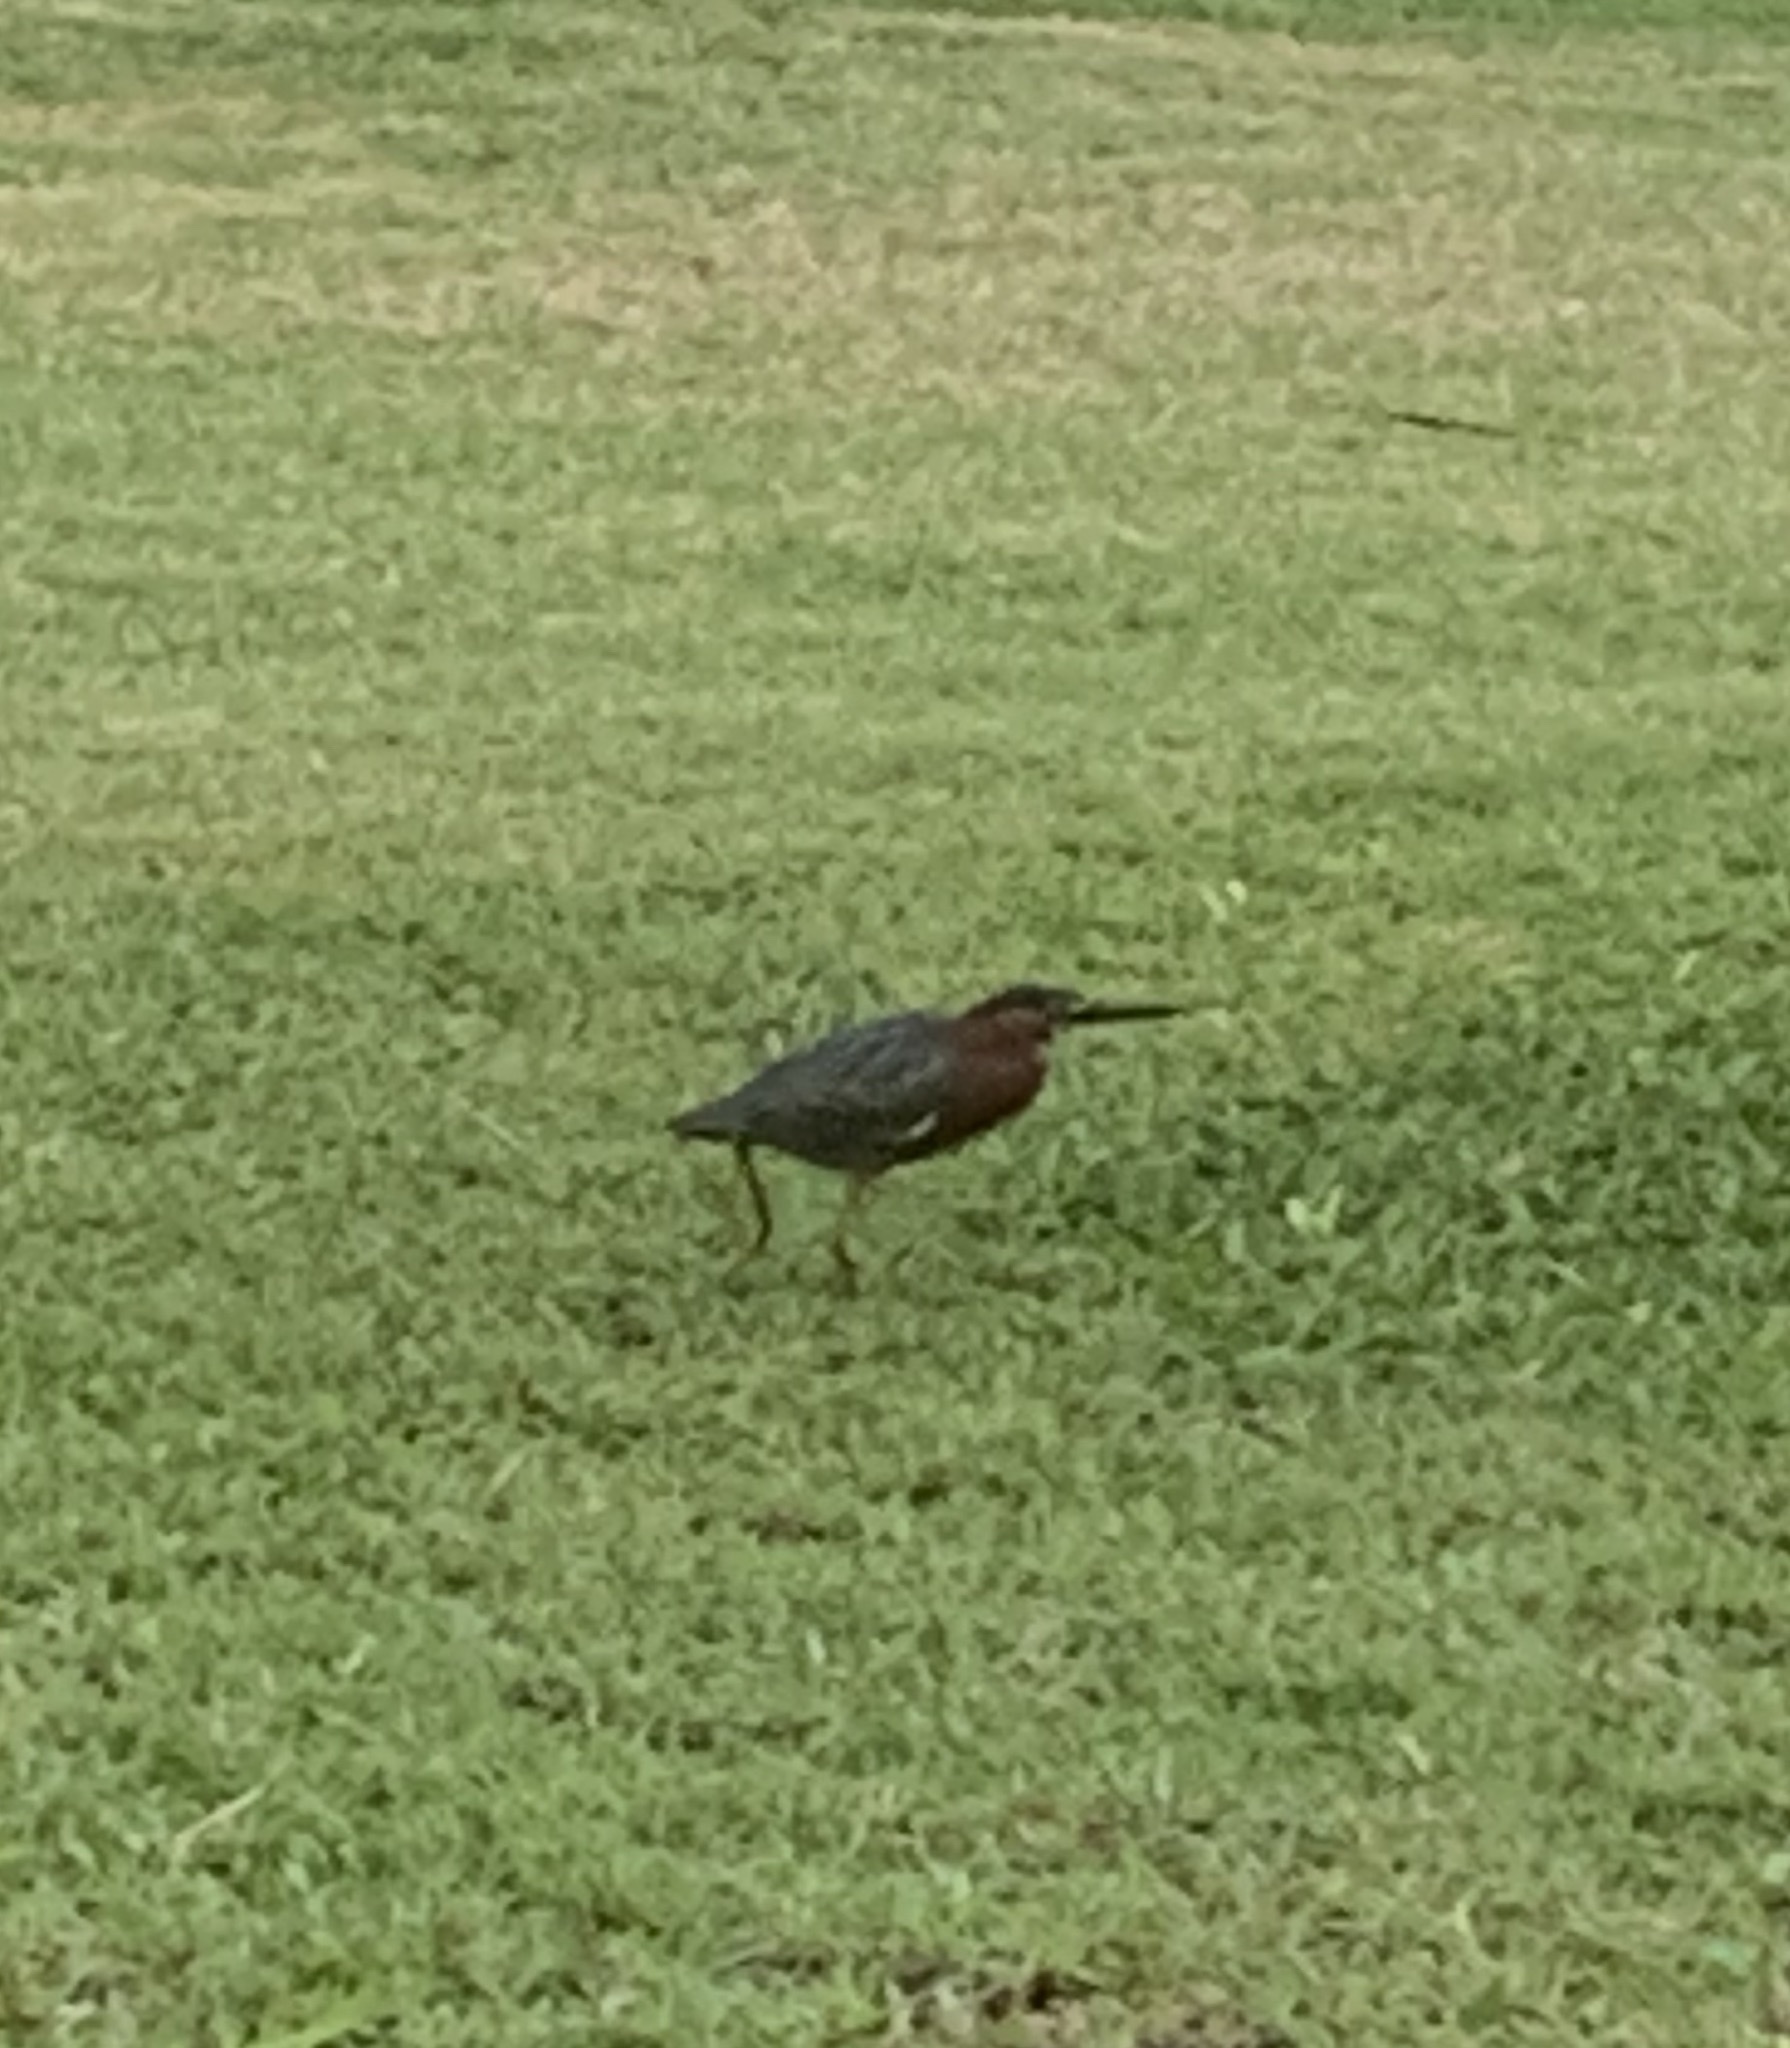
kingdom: Animalia
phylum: Chordata
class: Aves
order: Pelecaniformes
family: Ardeidae
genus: Butorides
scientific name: Butorides virescens
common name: Green heron
